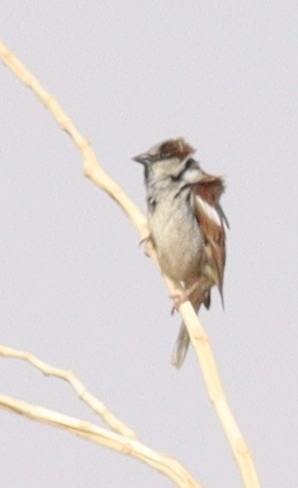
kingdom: Animalia
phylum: Chordata
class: Aves
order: Passeriformes
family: Passeridae
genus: Passer
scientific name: Passer domesticus
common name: House sparrow
